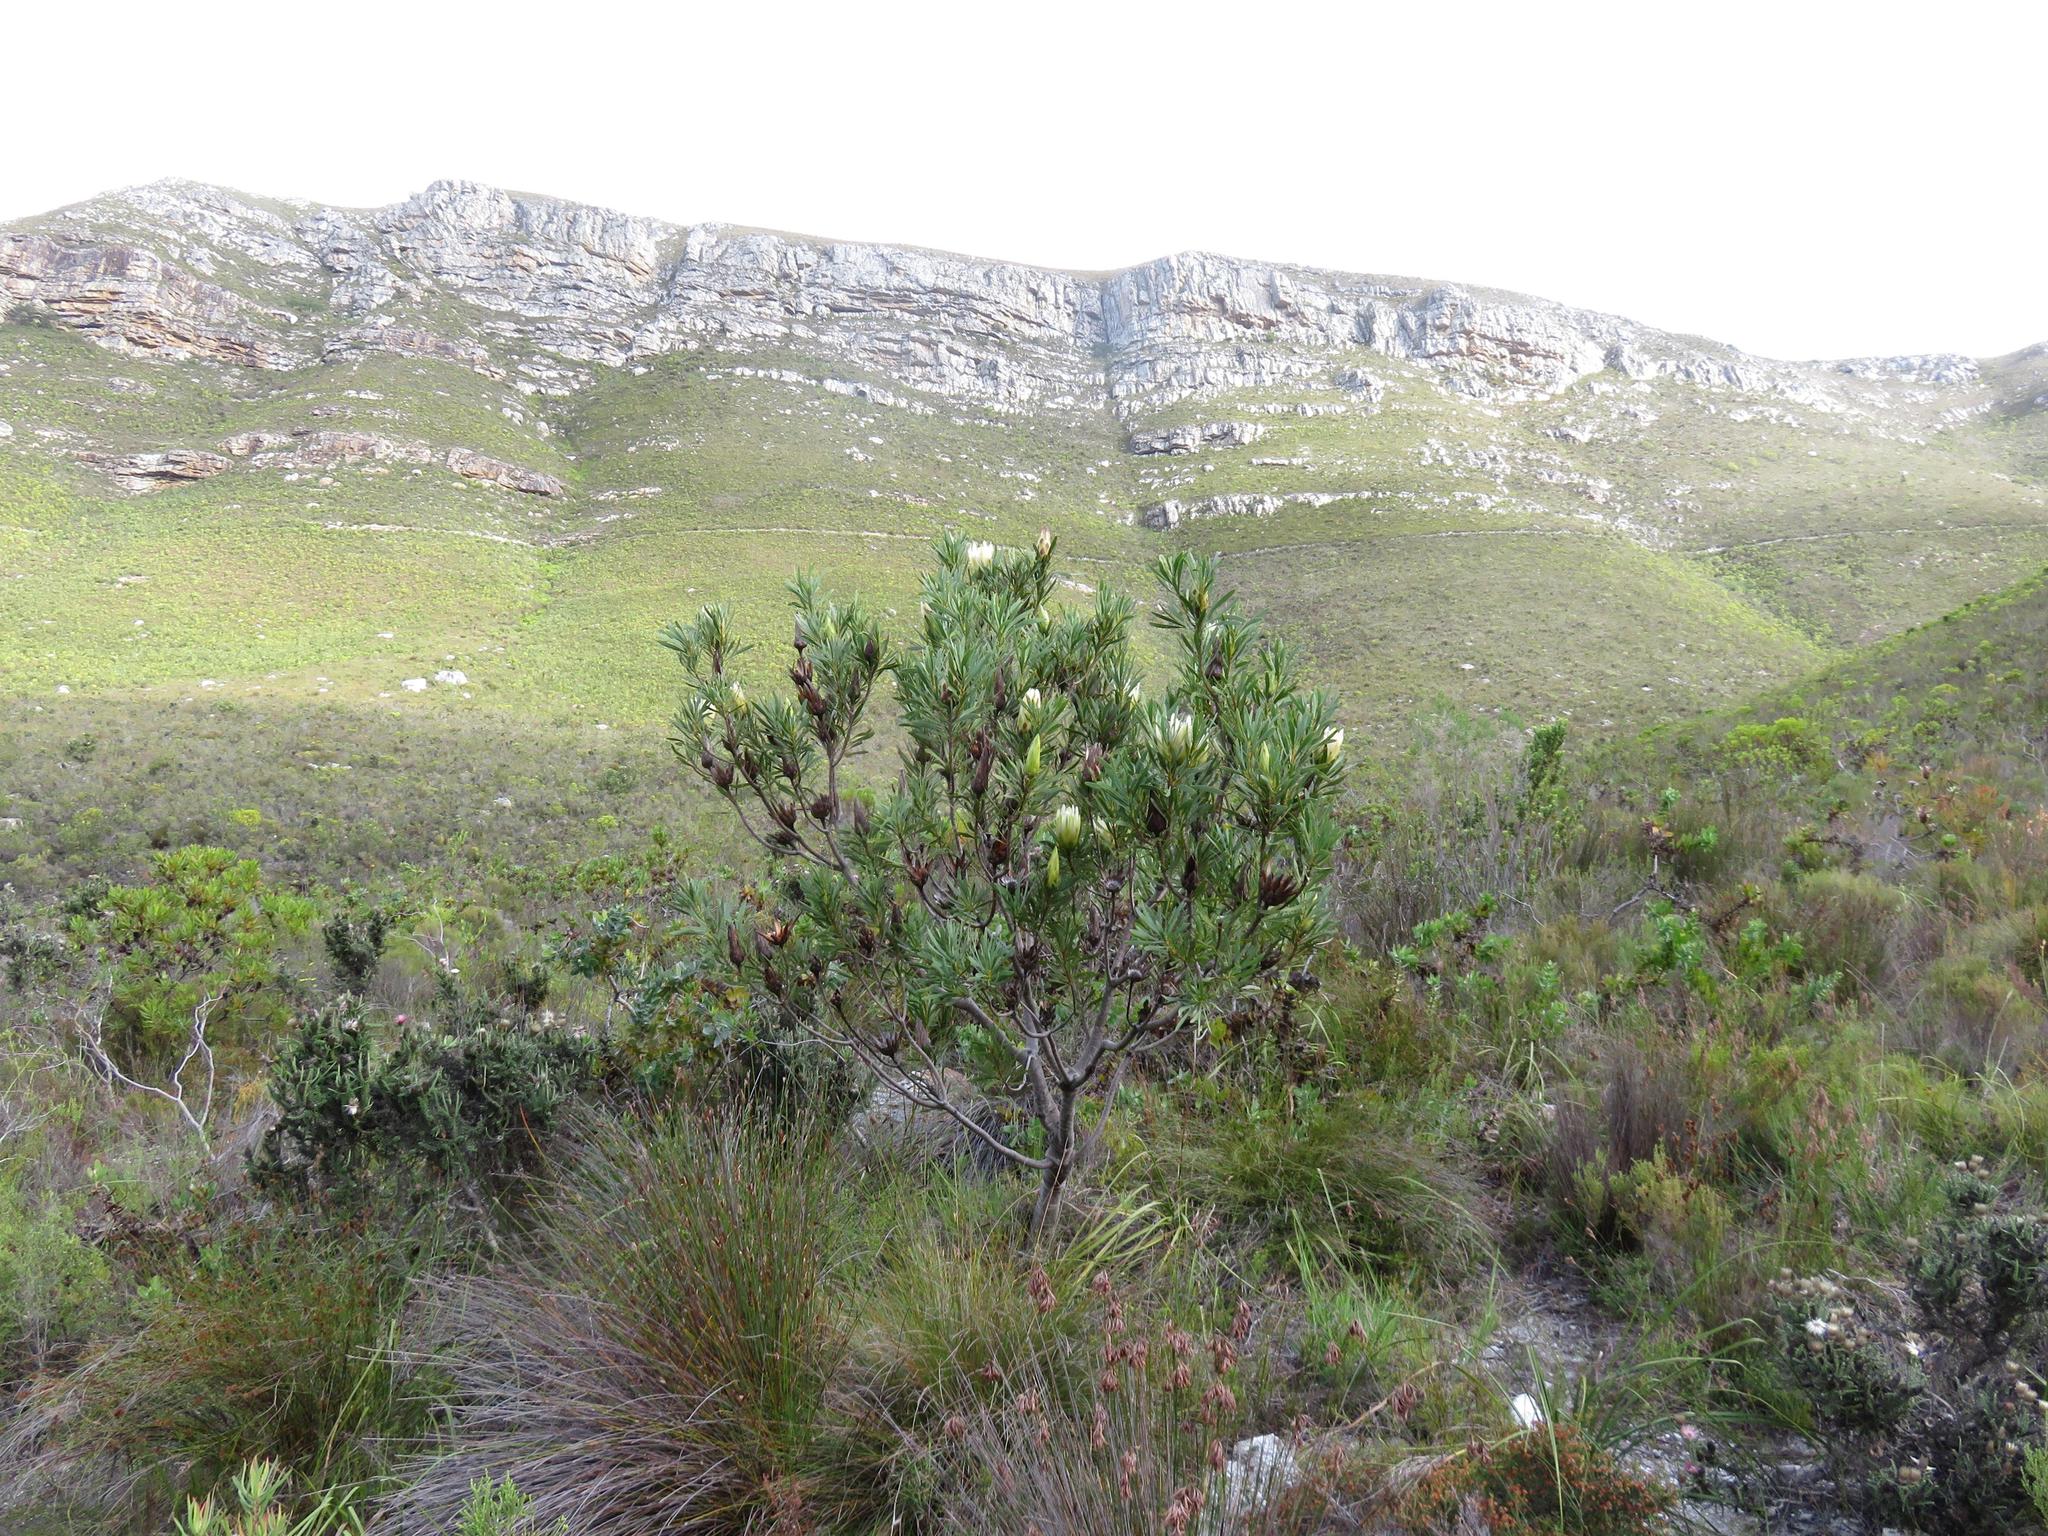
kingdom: Plantae
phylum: Tracheophyta
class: Magnoliopsida
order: Proteales
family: Proteaceae
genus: Protea
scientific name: Protea repens
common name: Sugarbush
